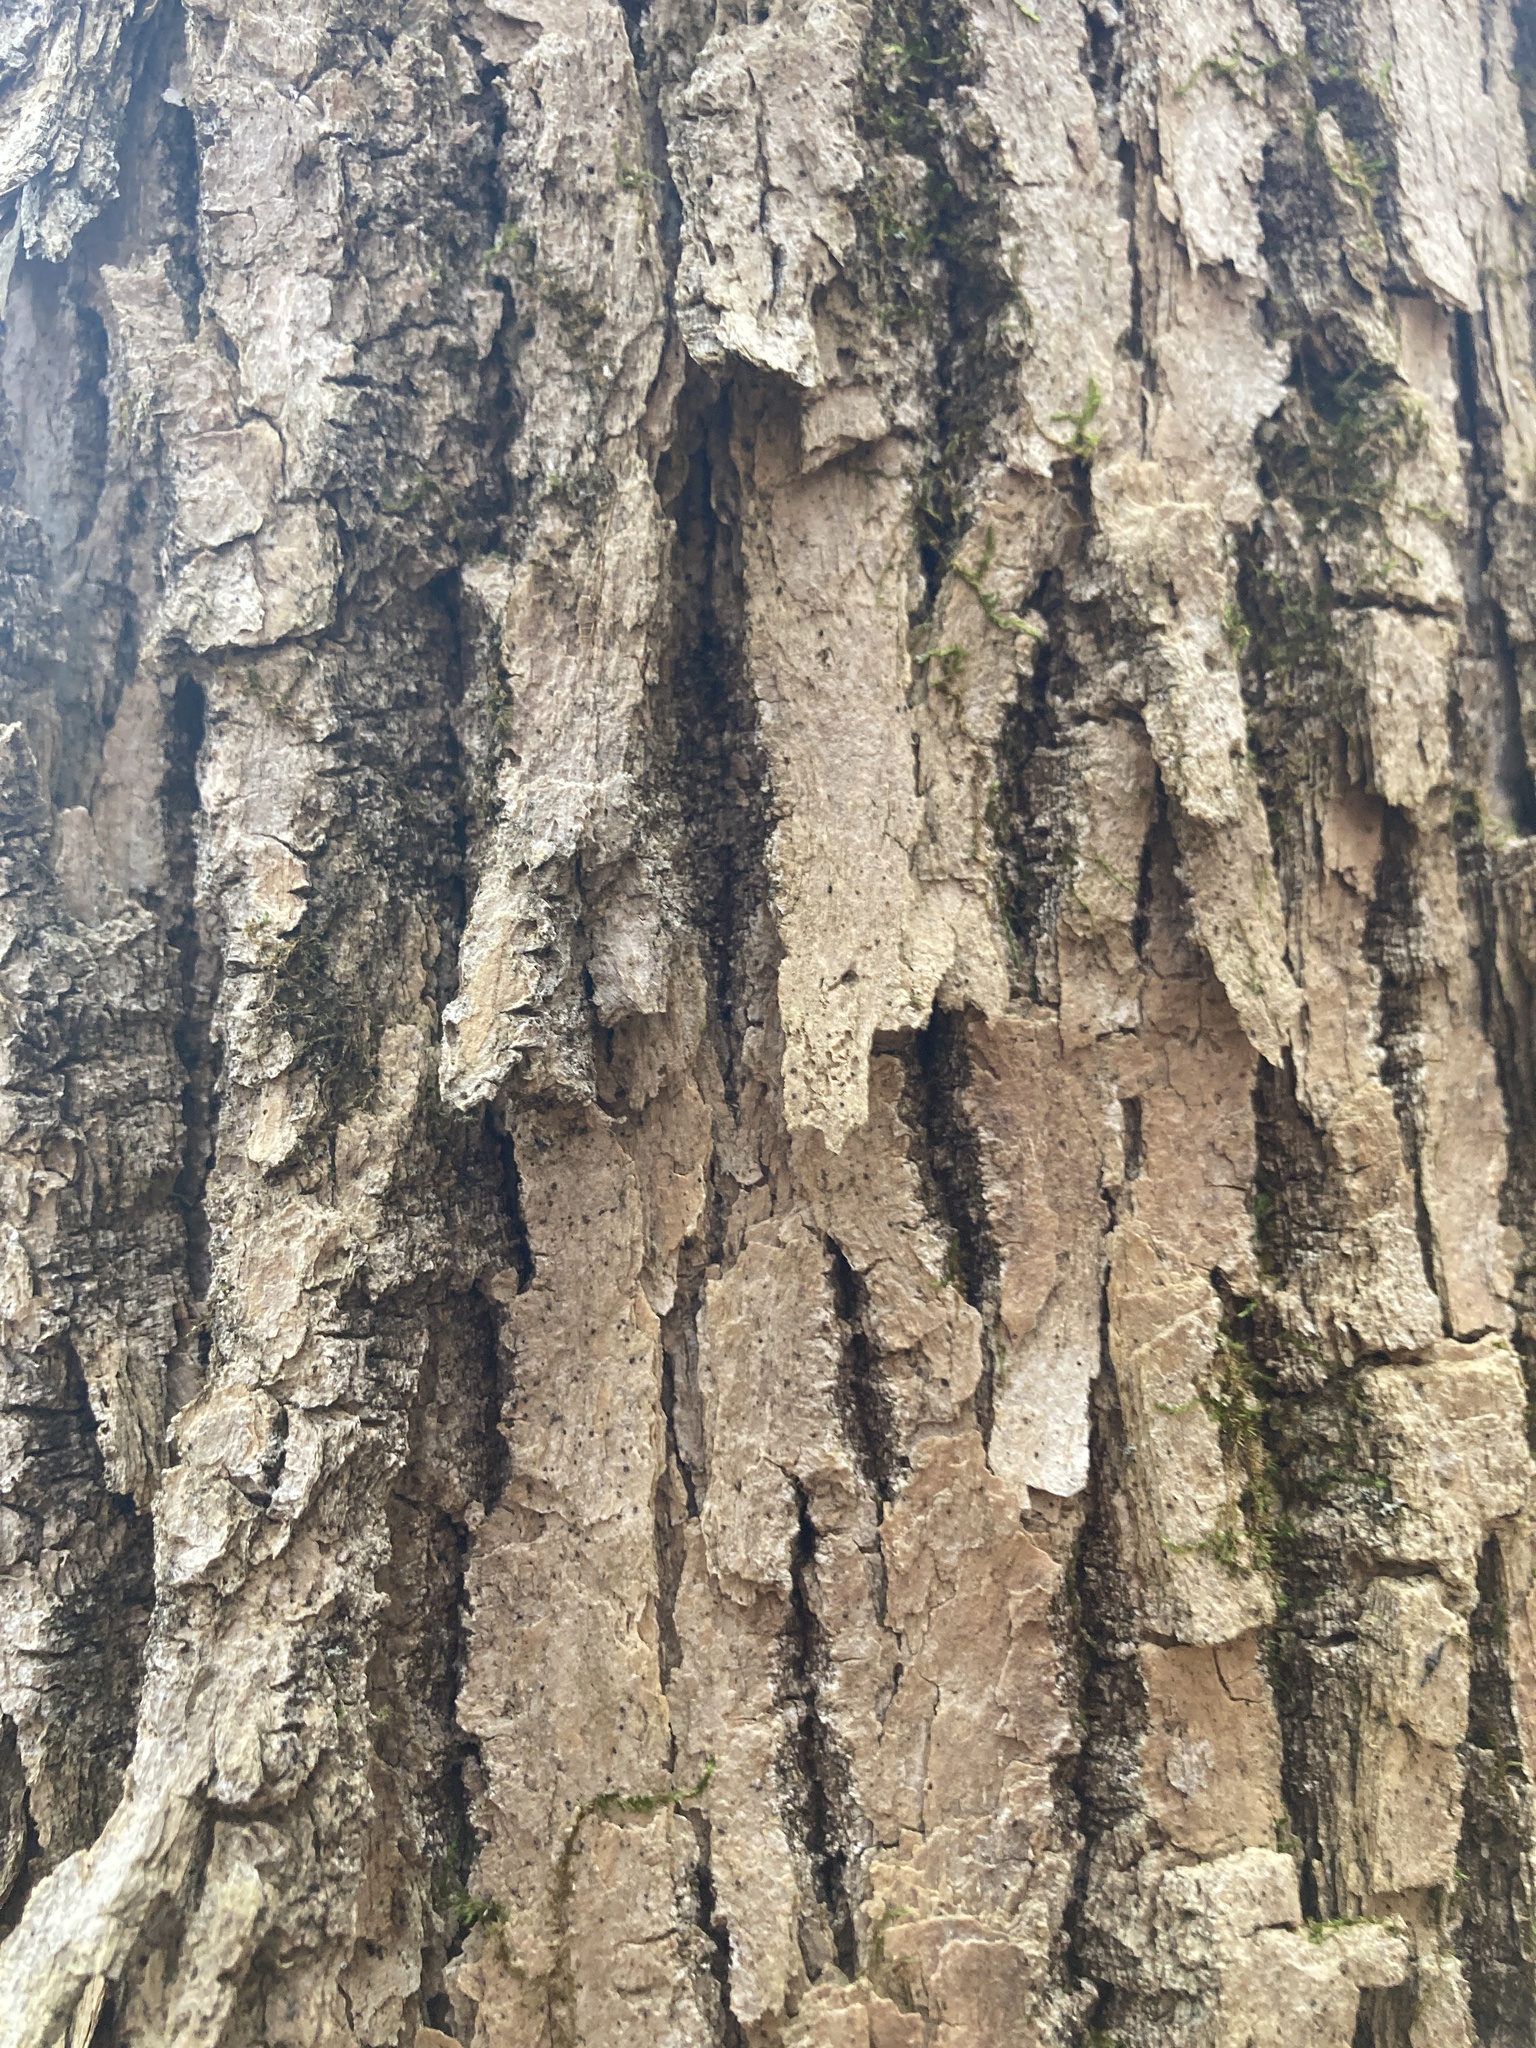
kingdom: Plantae
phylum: Tracheophyta
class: Magnoliopsida
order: Lamiales
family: Oleaceae
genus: Fraxinus
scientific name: Fraxinus americana
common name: White ash
